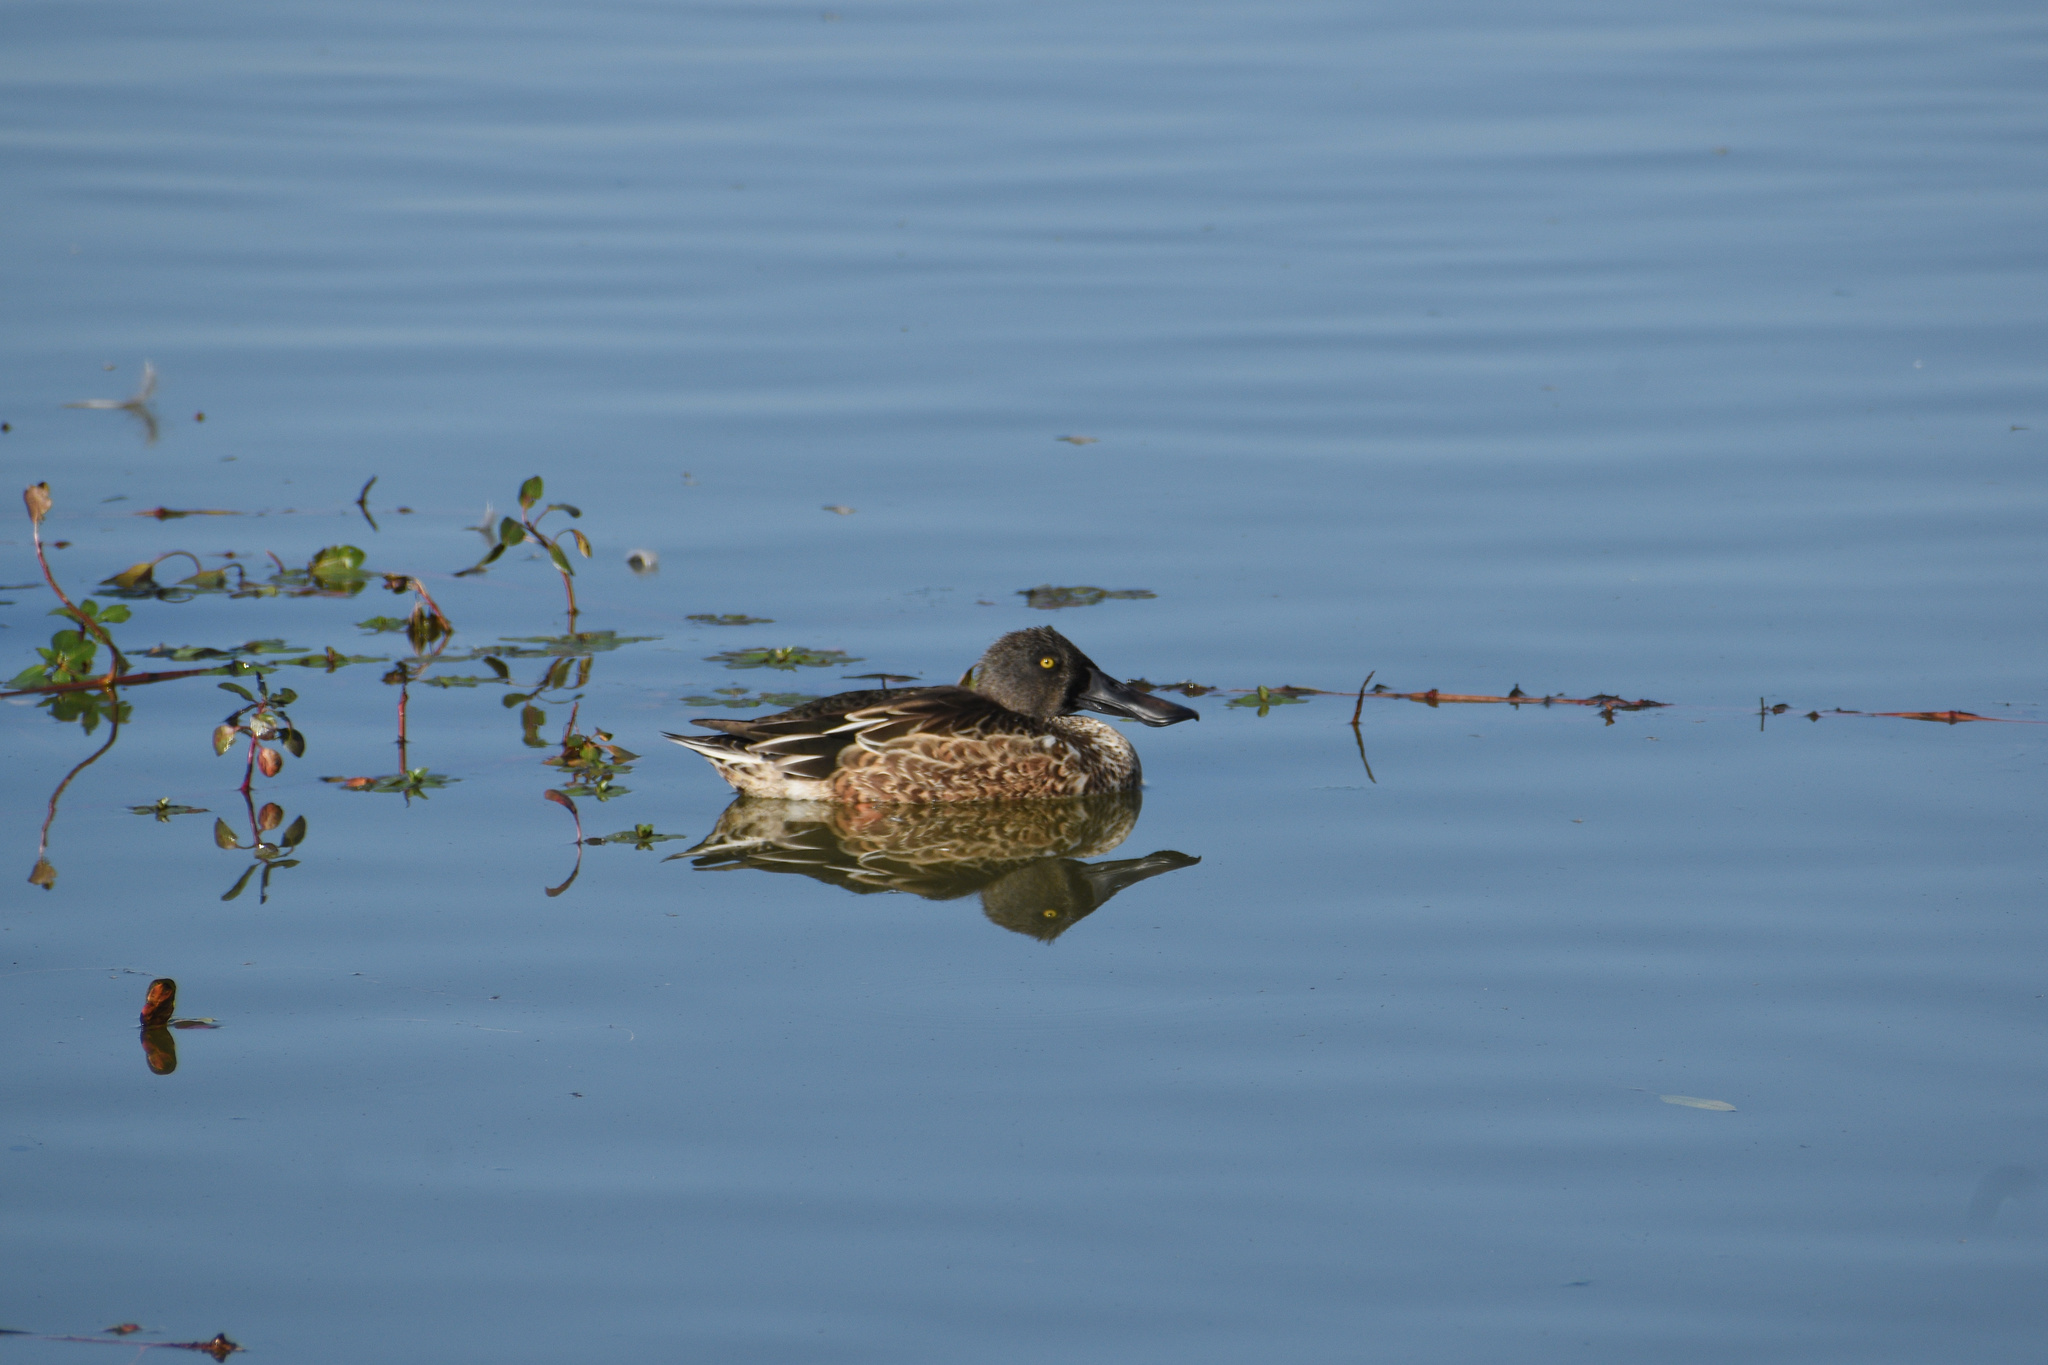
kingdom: Animalia
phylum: Chordata
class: Aves
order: Anseriformes
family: Anatidae
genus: Spatula
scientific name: Spatula clypeata
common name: Northern shoveler
